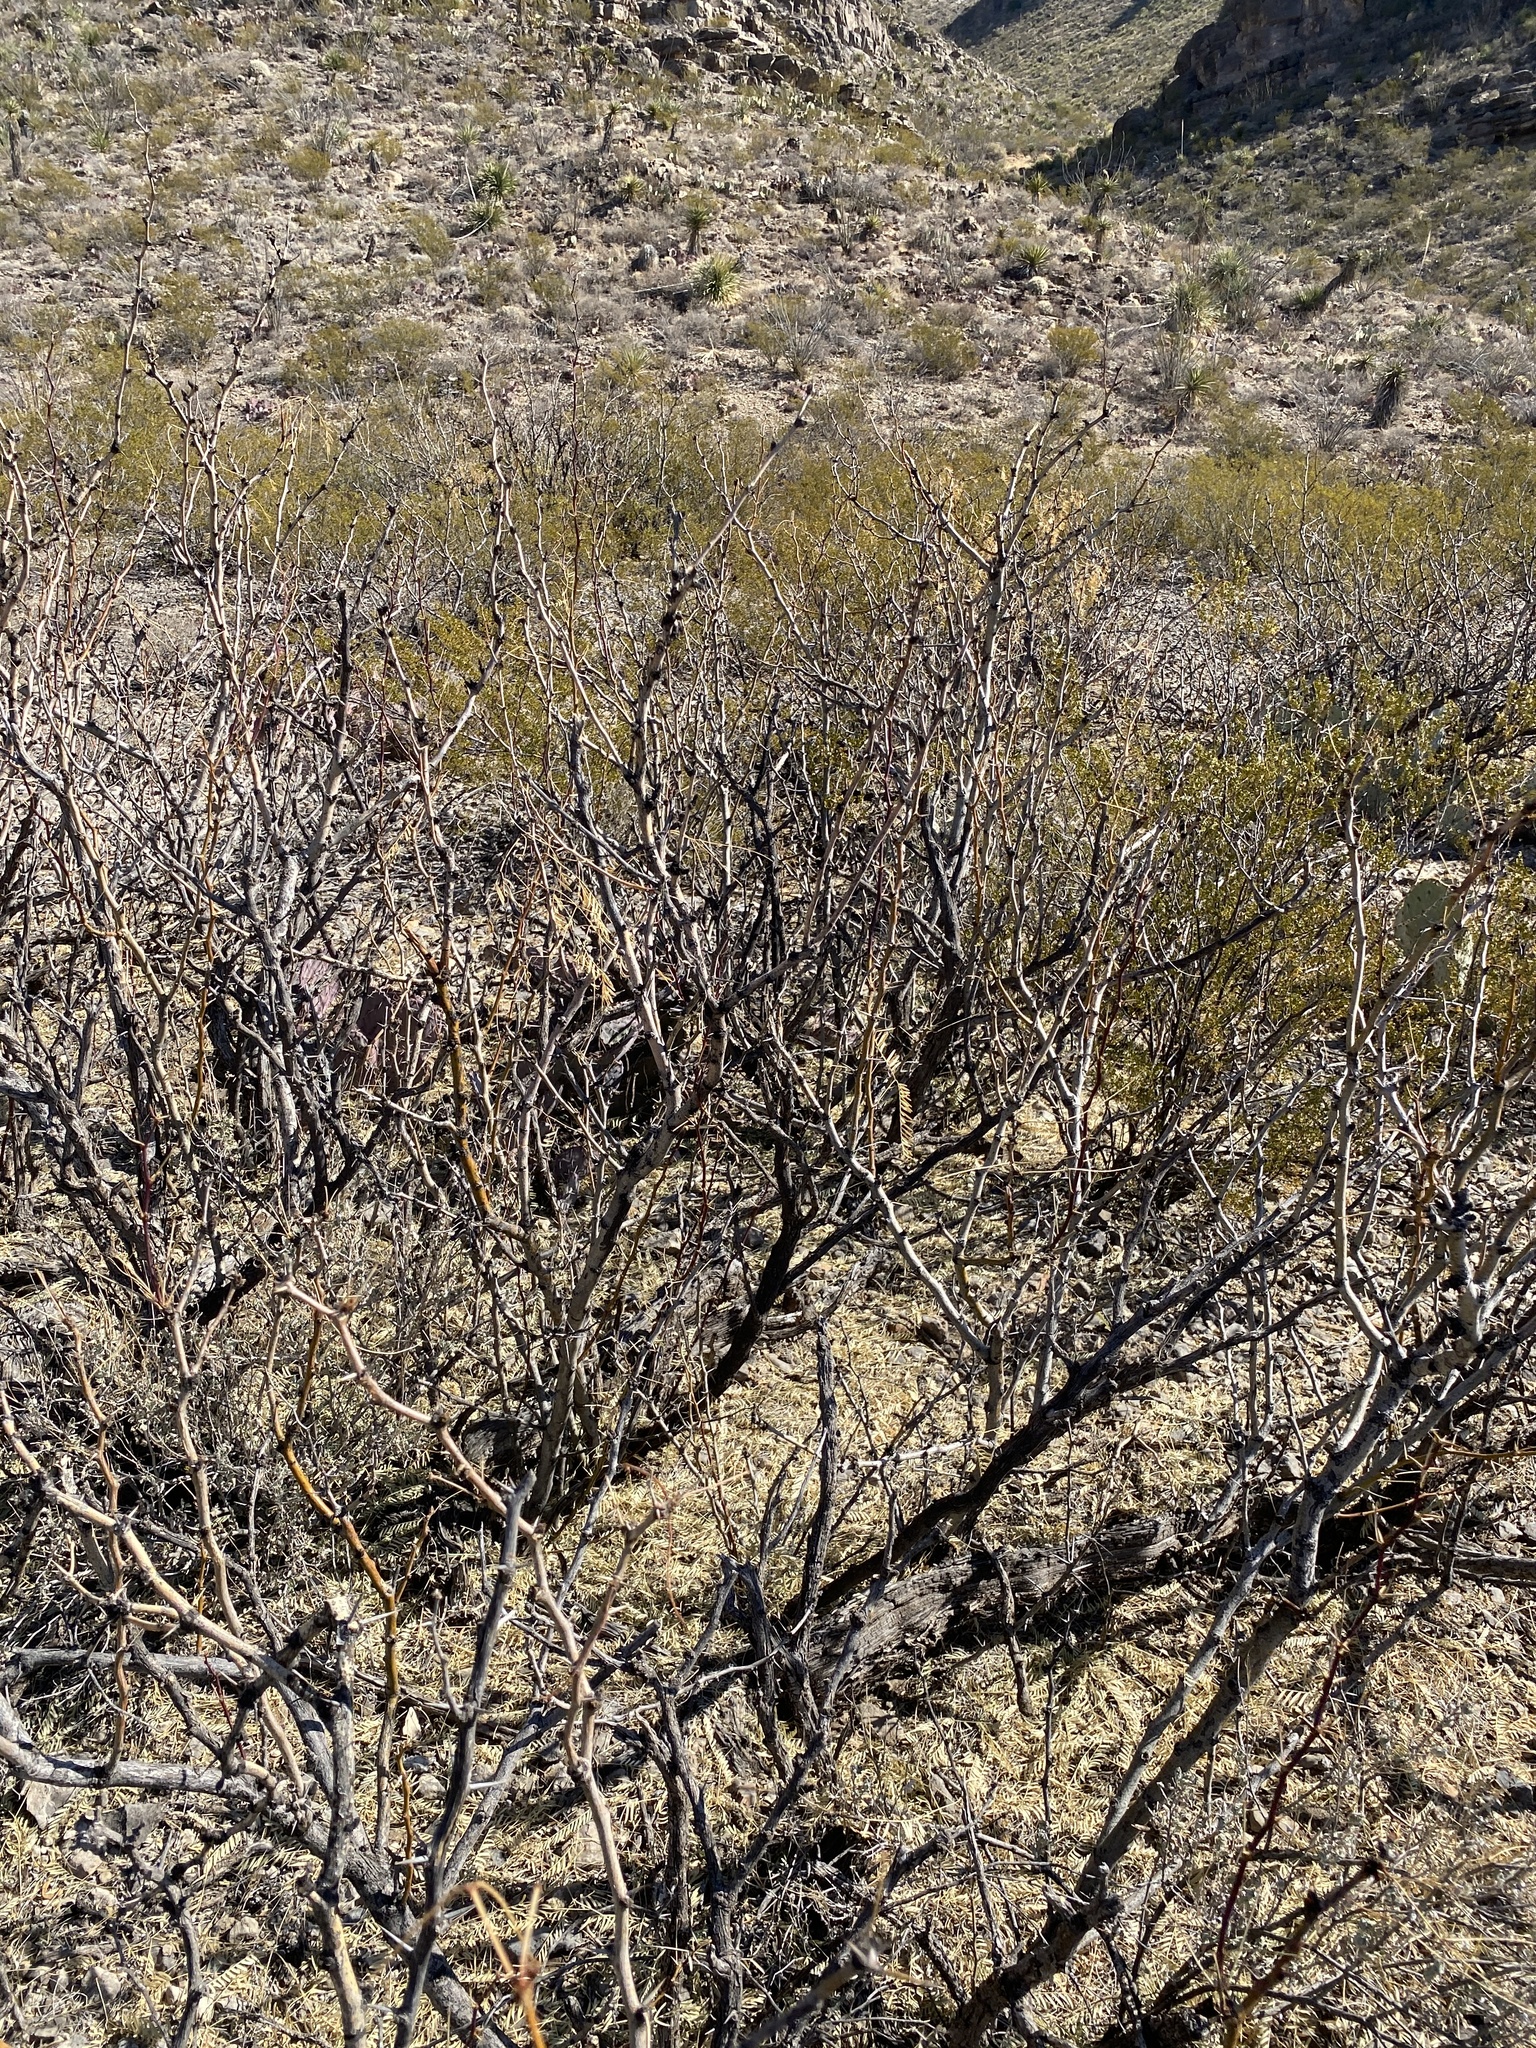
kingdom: Plantae
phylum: Tracheophyta
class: Magnoliopsida
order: Fabales
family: Fabaceae
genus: Prosopis
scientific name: Prosopis glandulosa
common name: Honey mesquite
